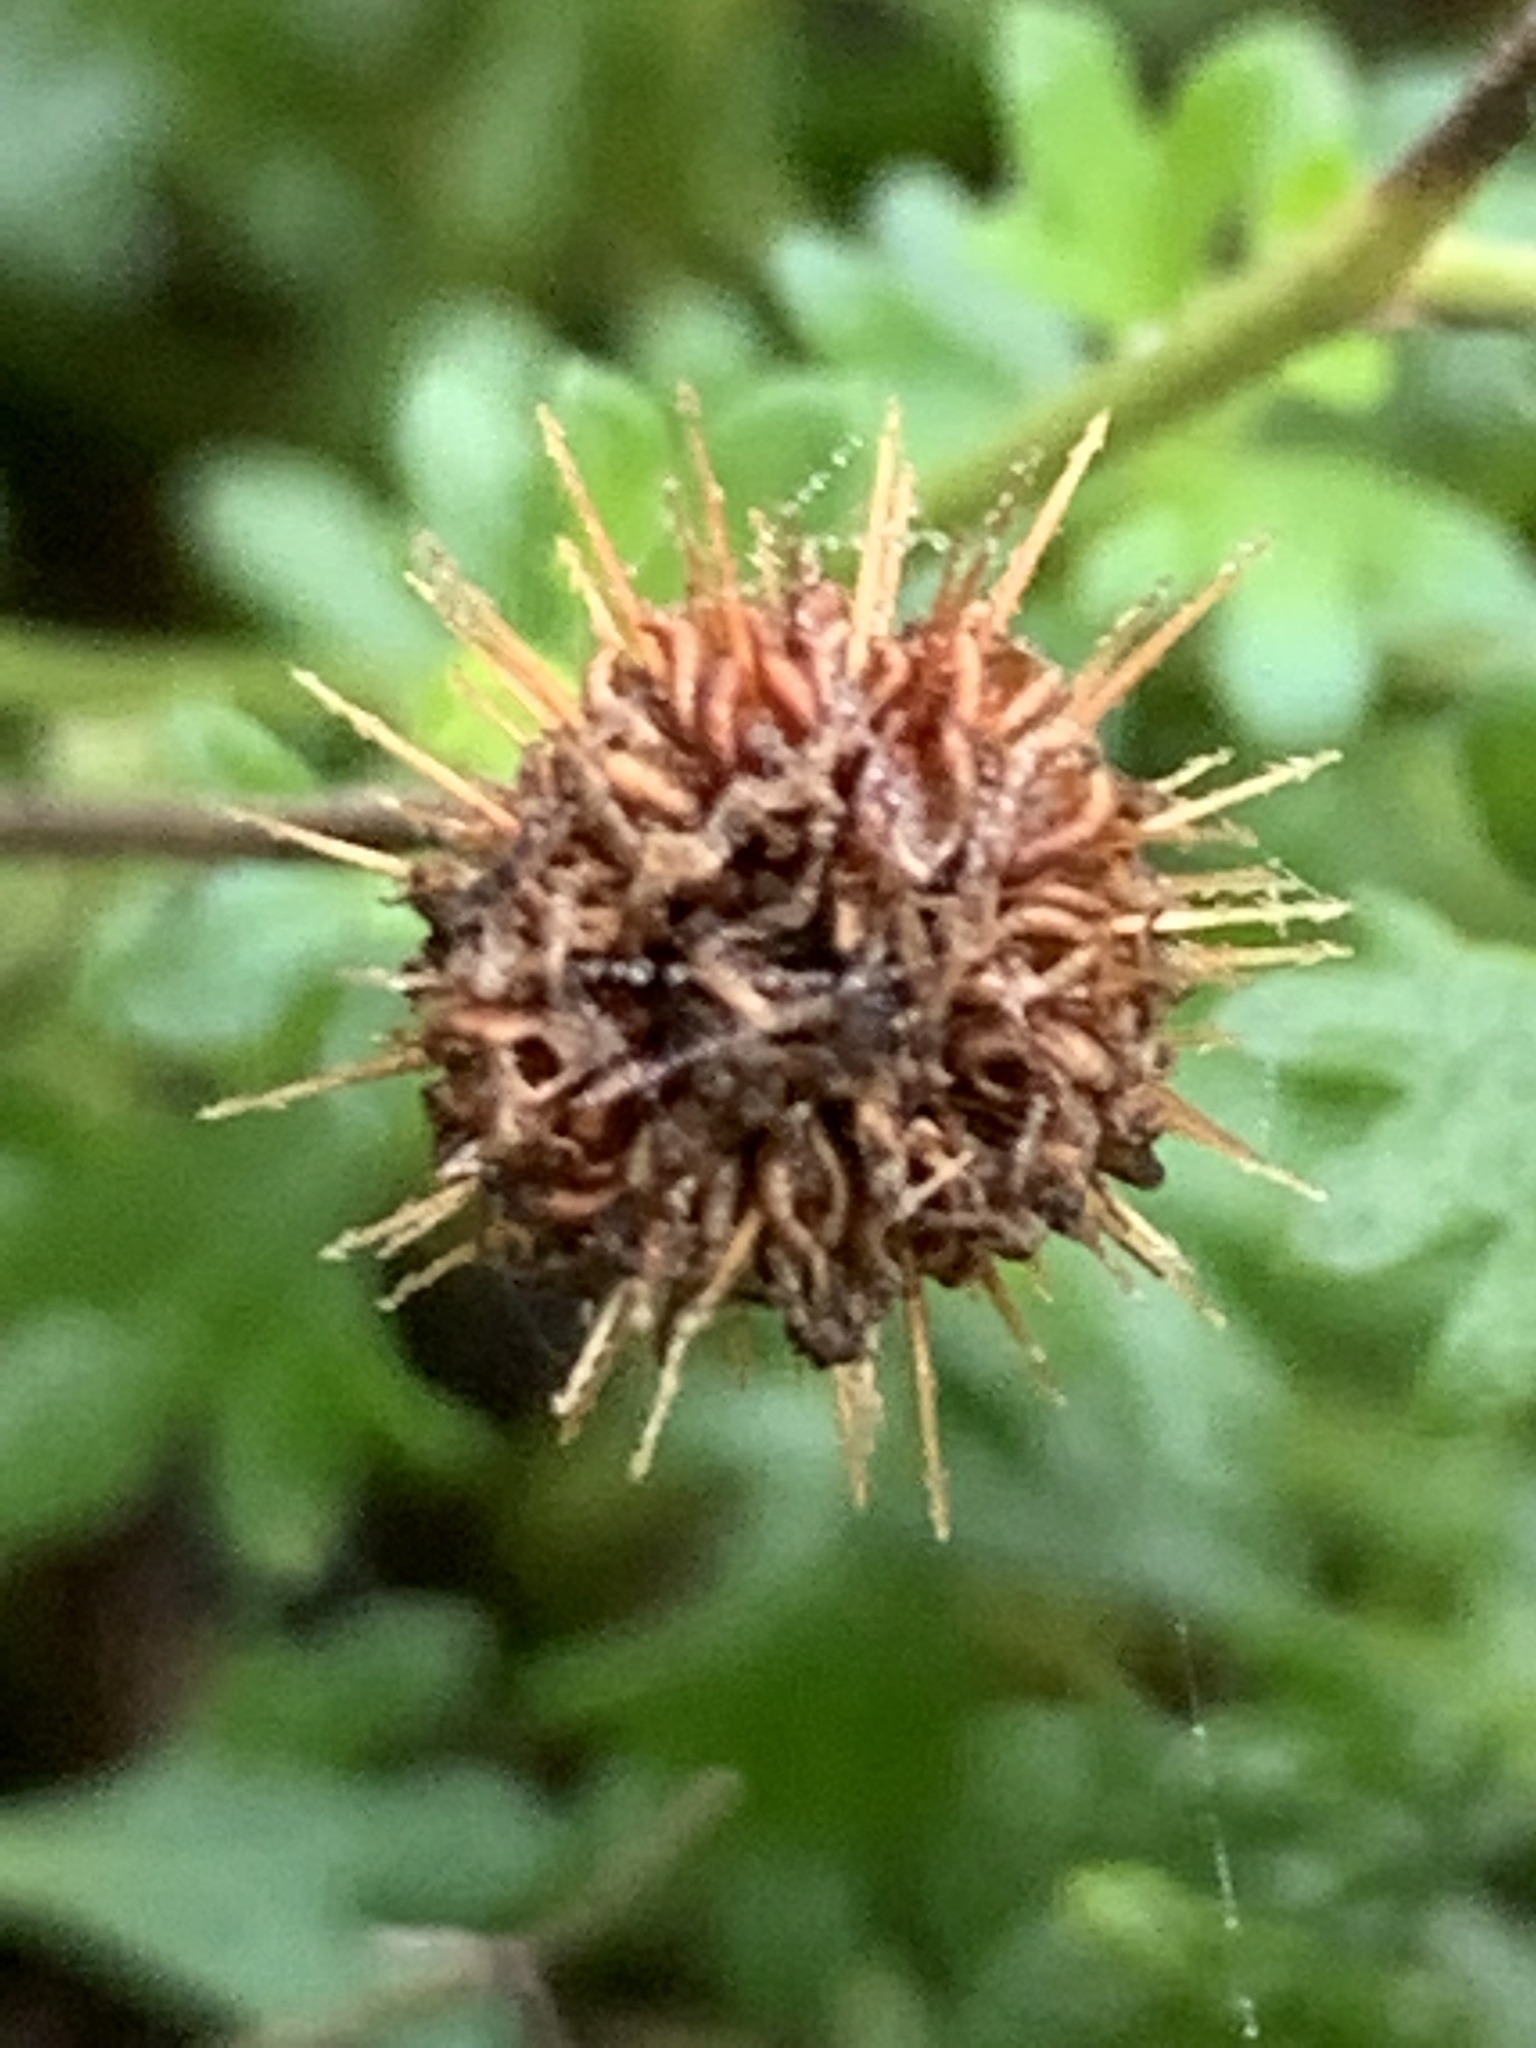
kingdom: Plantae
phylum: Tracheophyta
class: Magnoliopsida
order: Asterales
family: Asteraceae
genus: Calotis
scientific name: Calotis cuneifolia
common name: Bur-daisy
